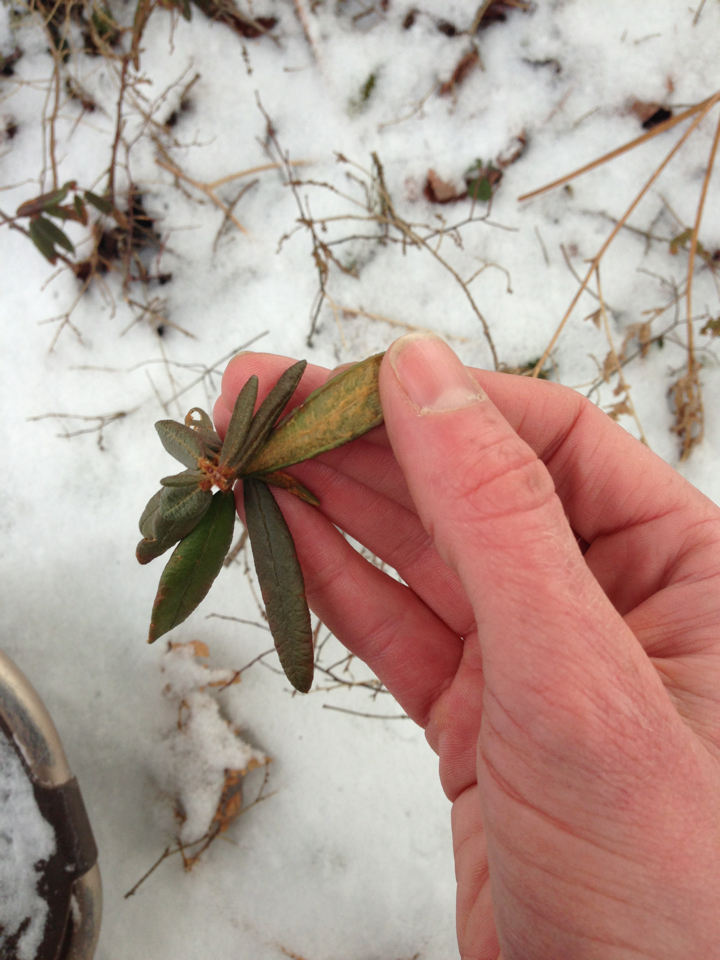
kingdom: Plantae
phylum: Tracheophyta
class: Magnoliopsida
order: Ericales
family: Ericaceae
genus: Rhododendron
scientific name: Rhododendron groenlandicum
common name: Bog labrador tea
